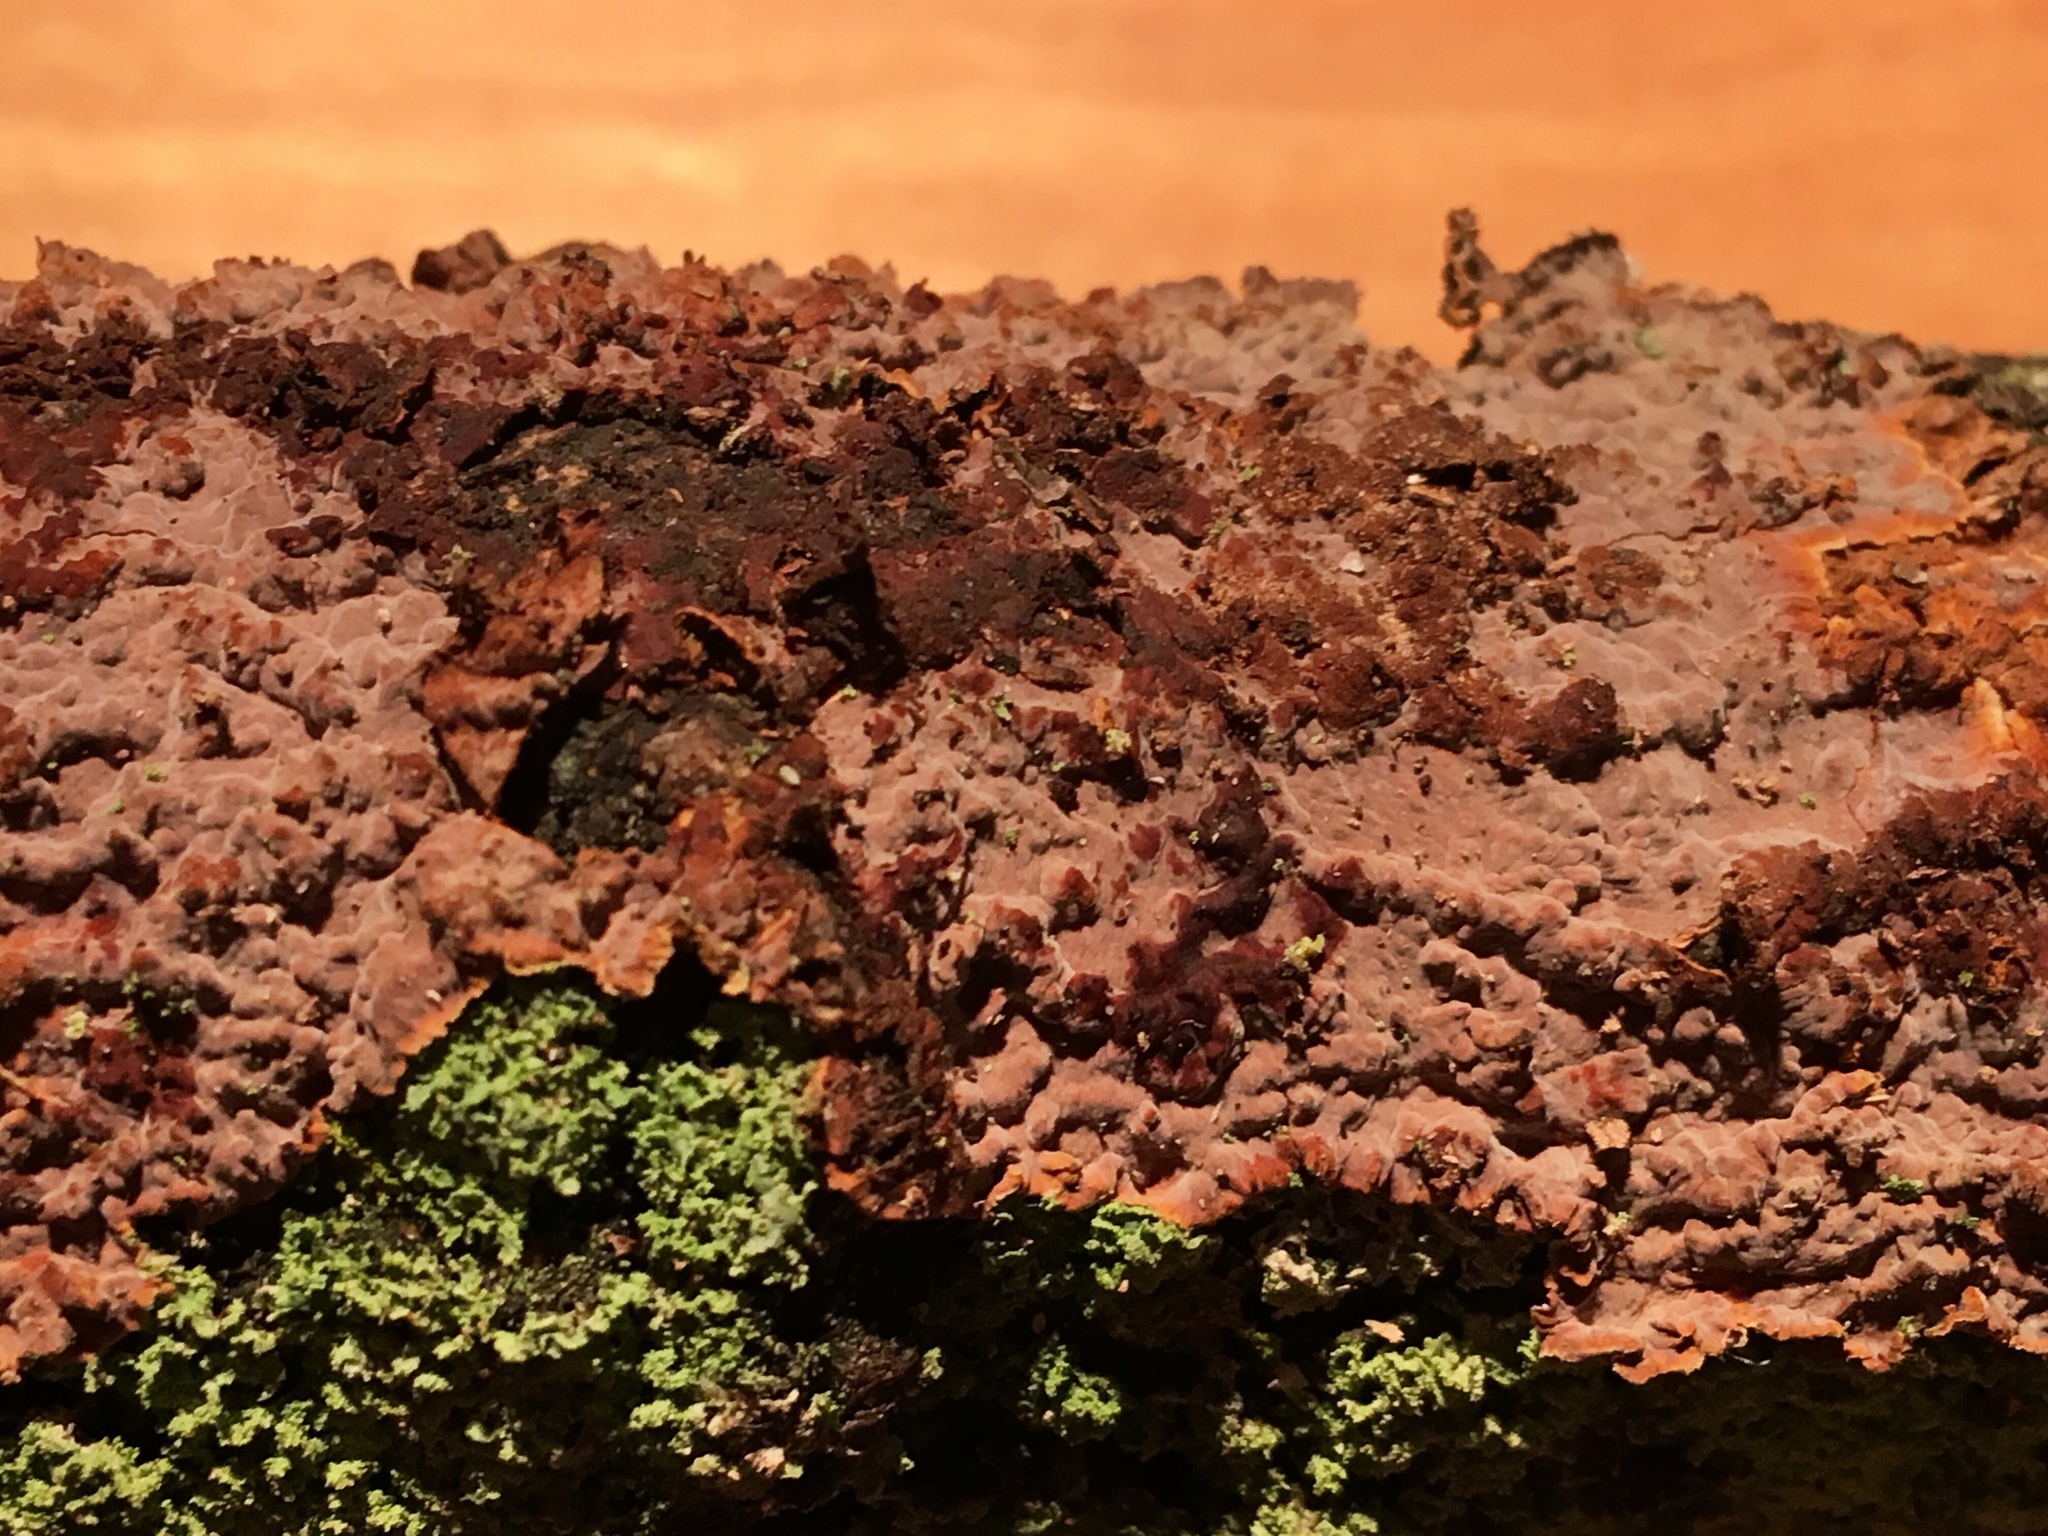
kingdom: Fungi
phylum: Basidiomycota
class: Agaricomycetes
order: Polyporales
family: Meruliaceae
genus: Phlebia
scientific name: Phlebia radiata
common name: Wrinkled crust
